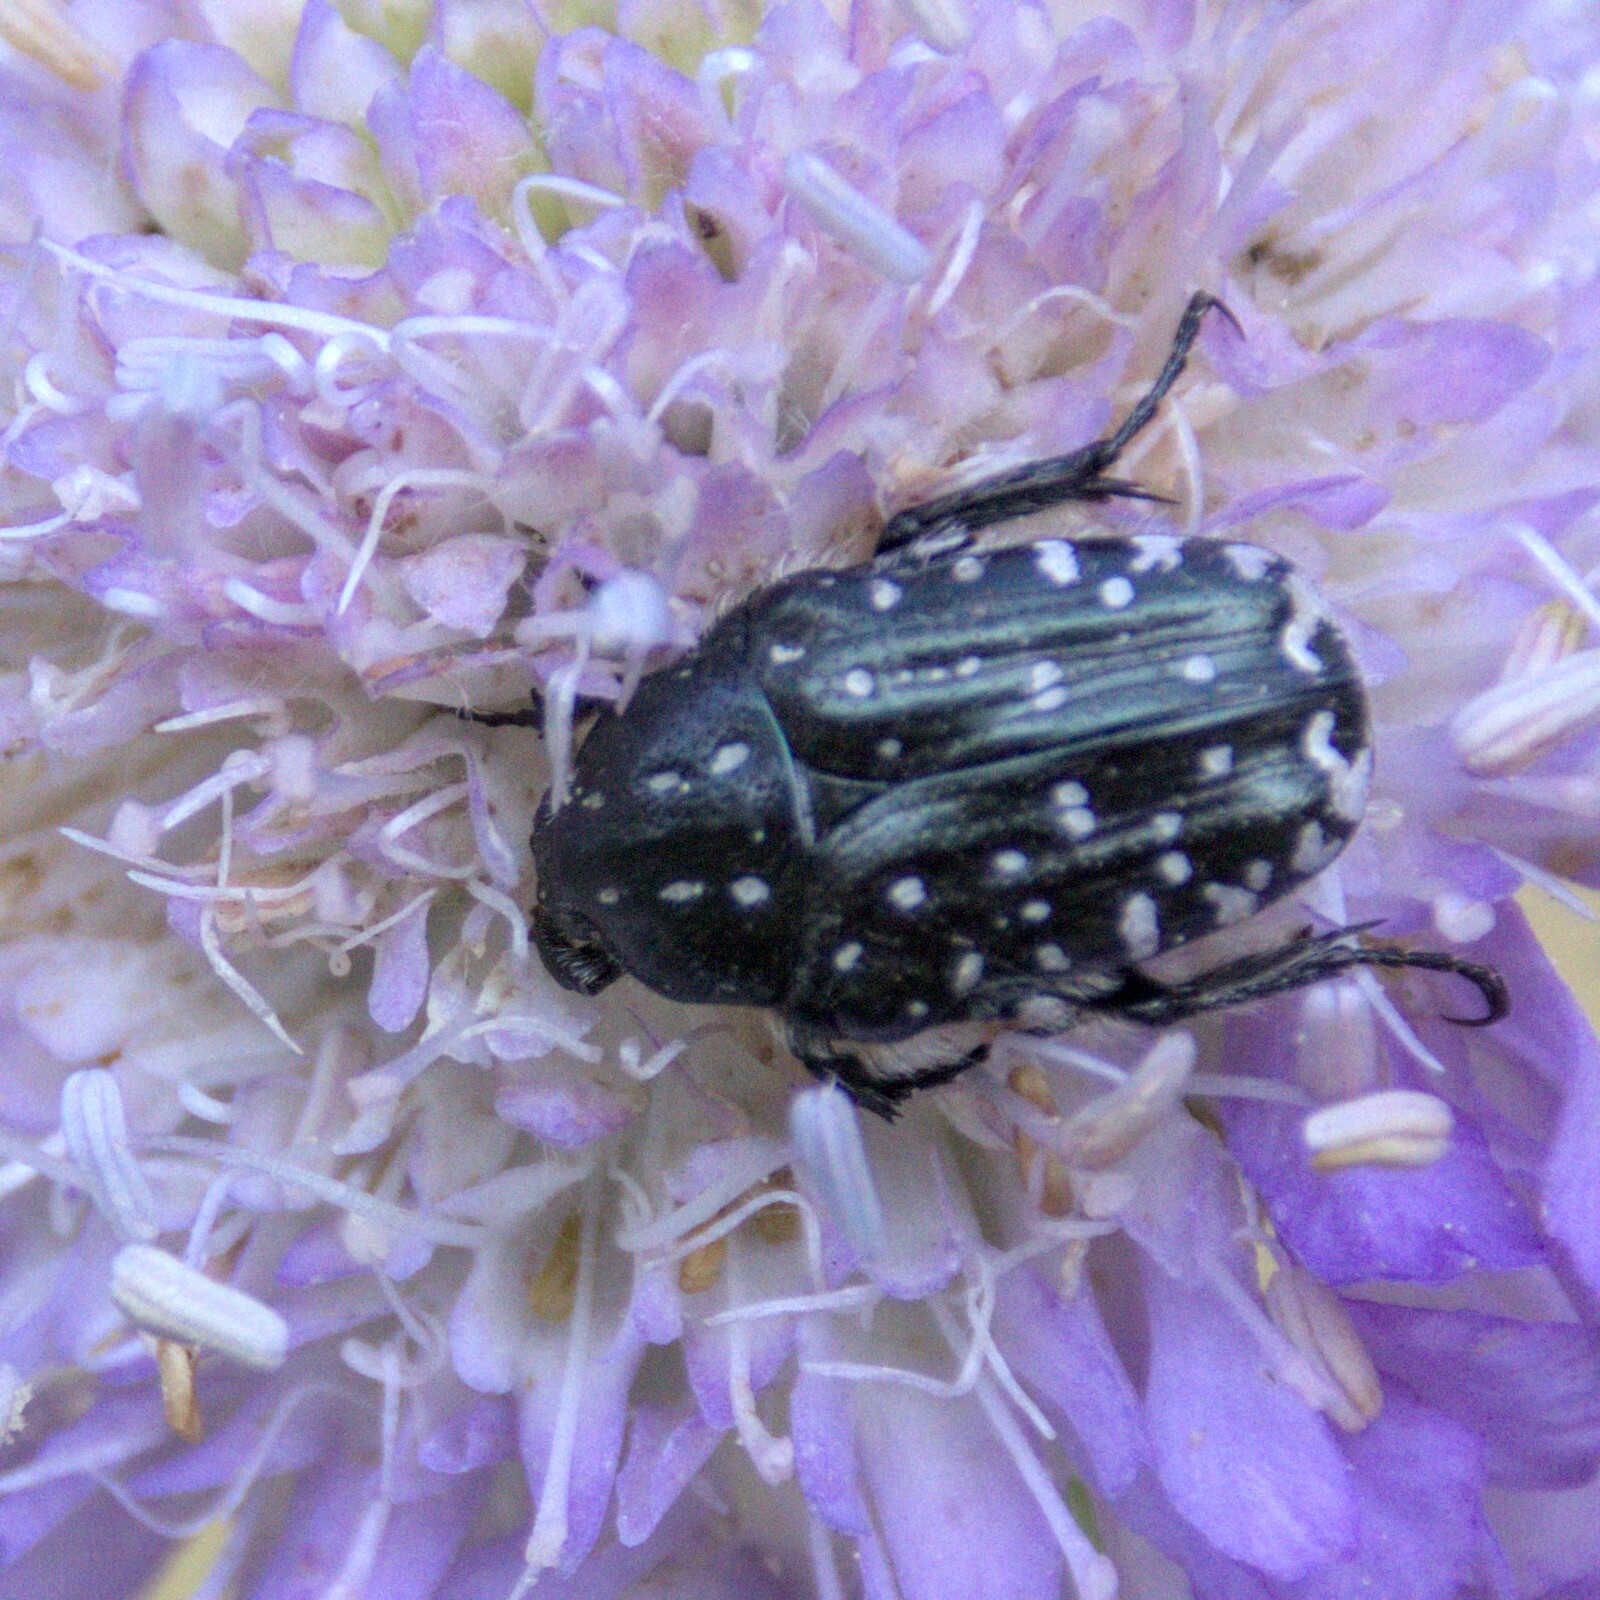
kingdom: Animalia
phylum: Arthropoda
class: Insecta
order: Coleoptera
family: Scarabaeidae
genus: Oxythyrea
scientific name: Oxythyrea funesta
